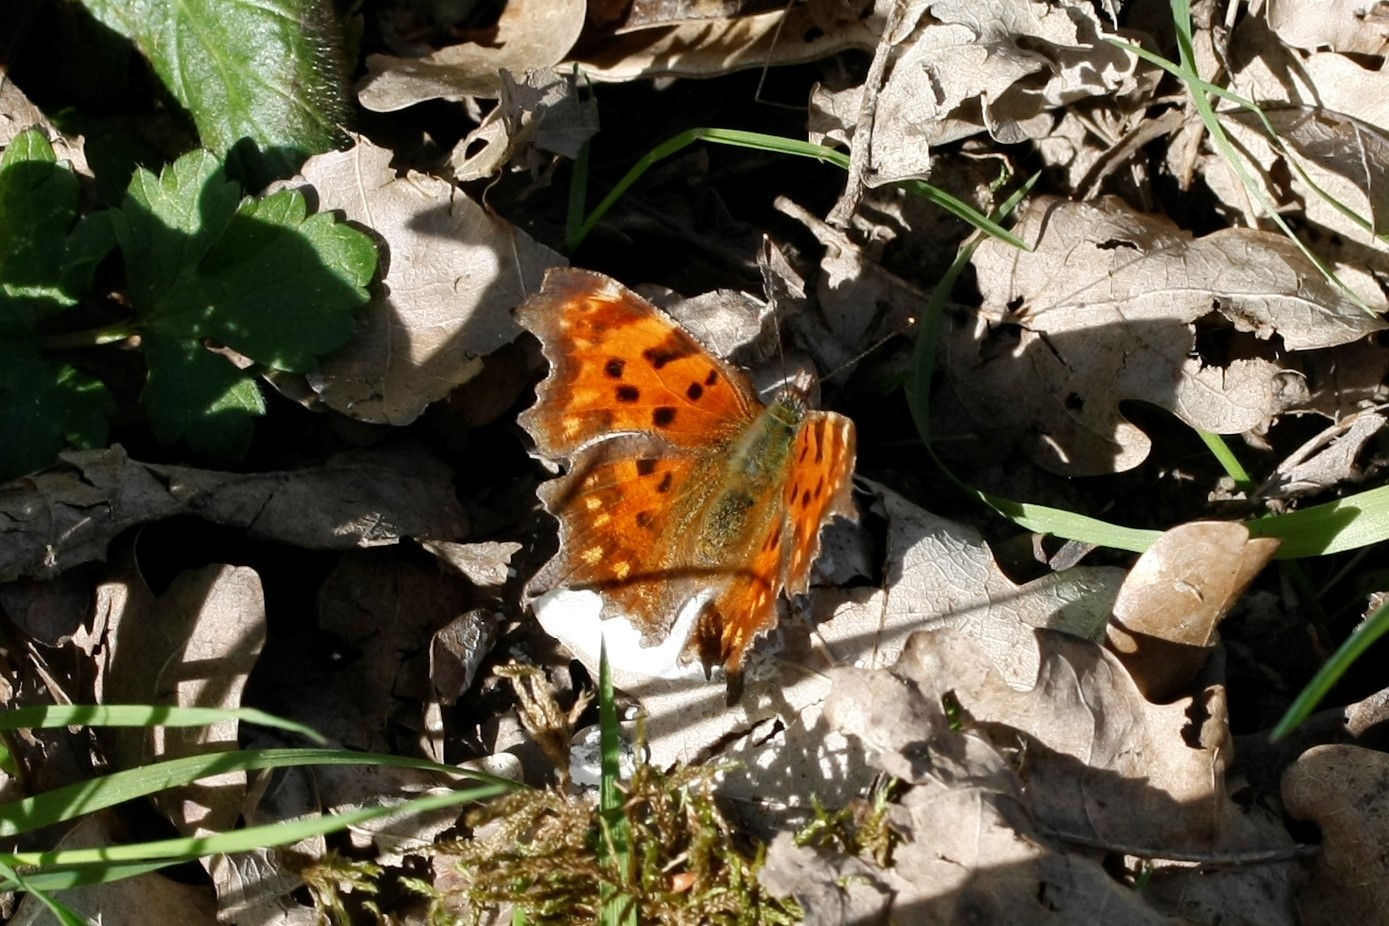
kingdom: Animalia
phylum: Arthropoda
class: Insecta
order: Lepidoptera
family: Nymphalidae
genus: Polygonia
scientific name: Polygonia c-album
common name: Comma
